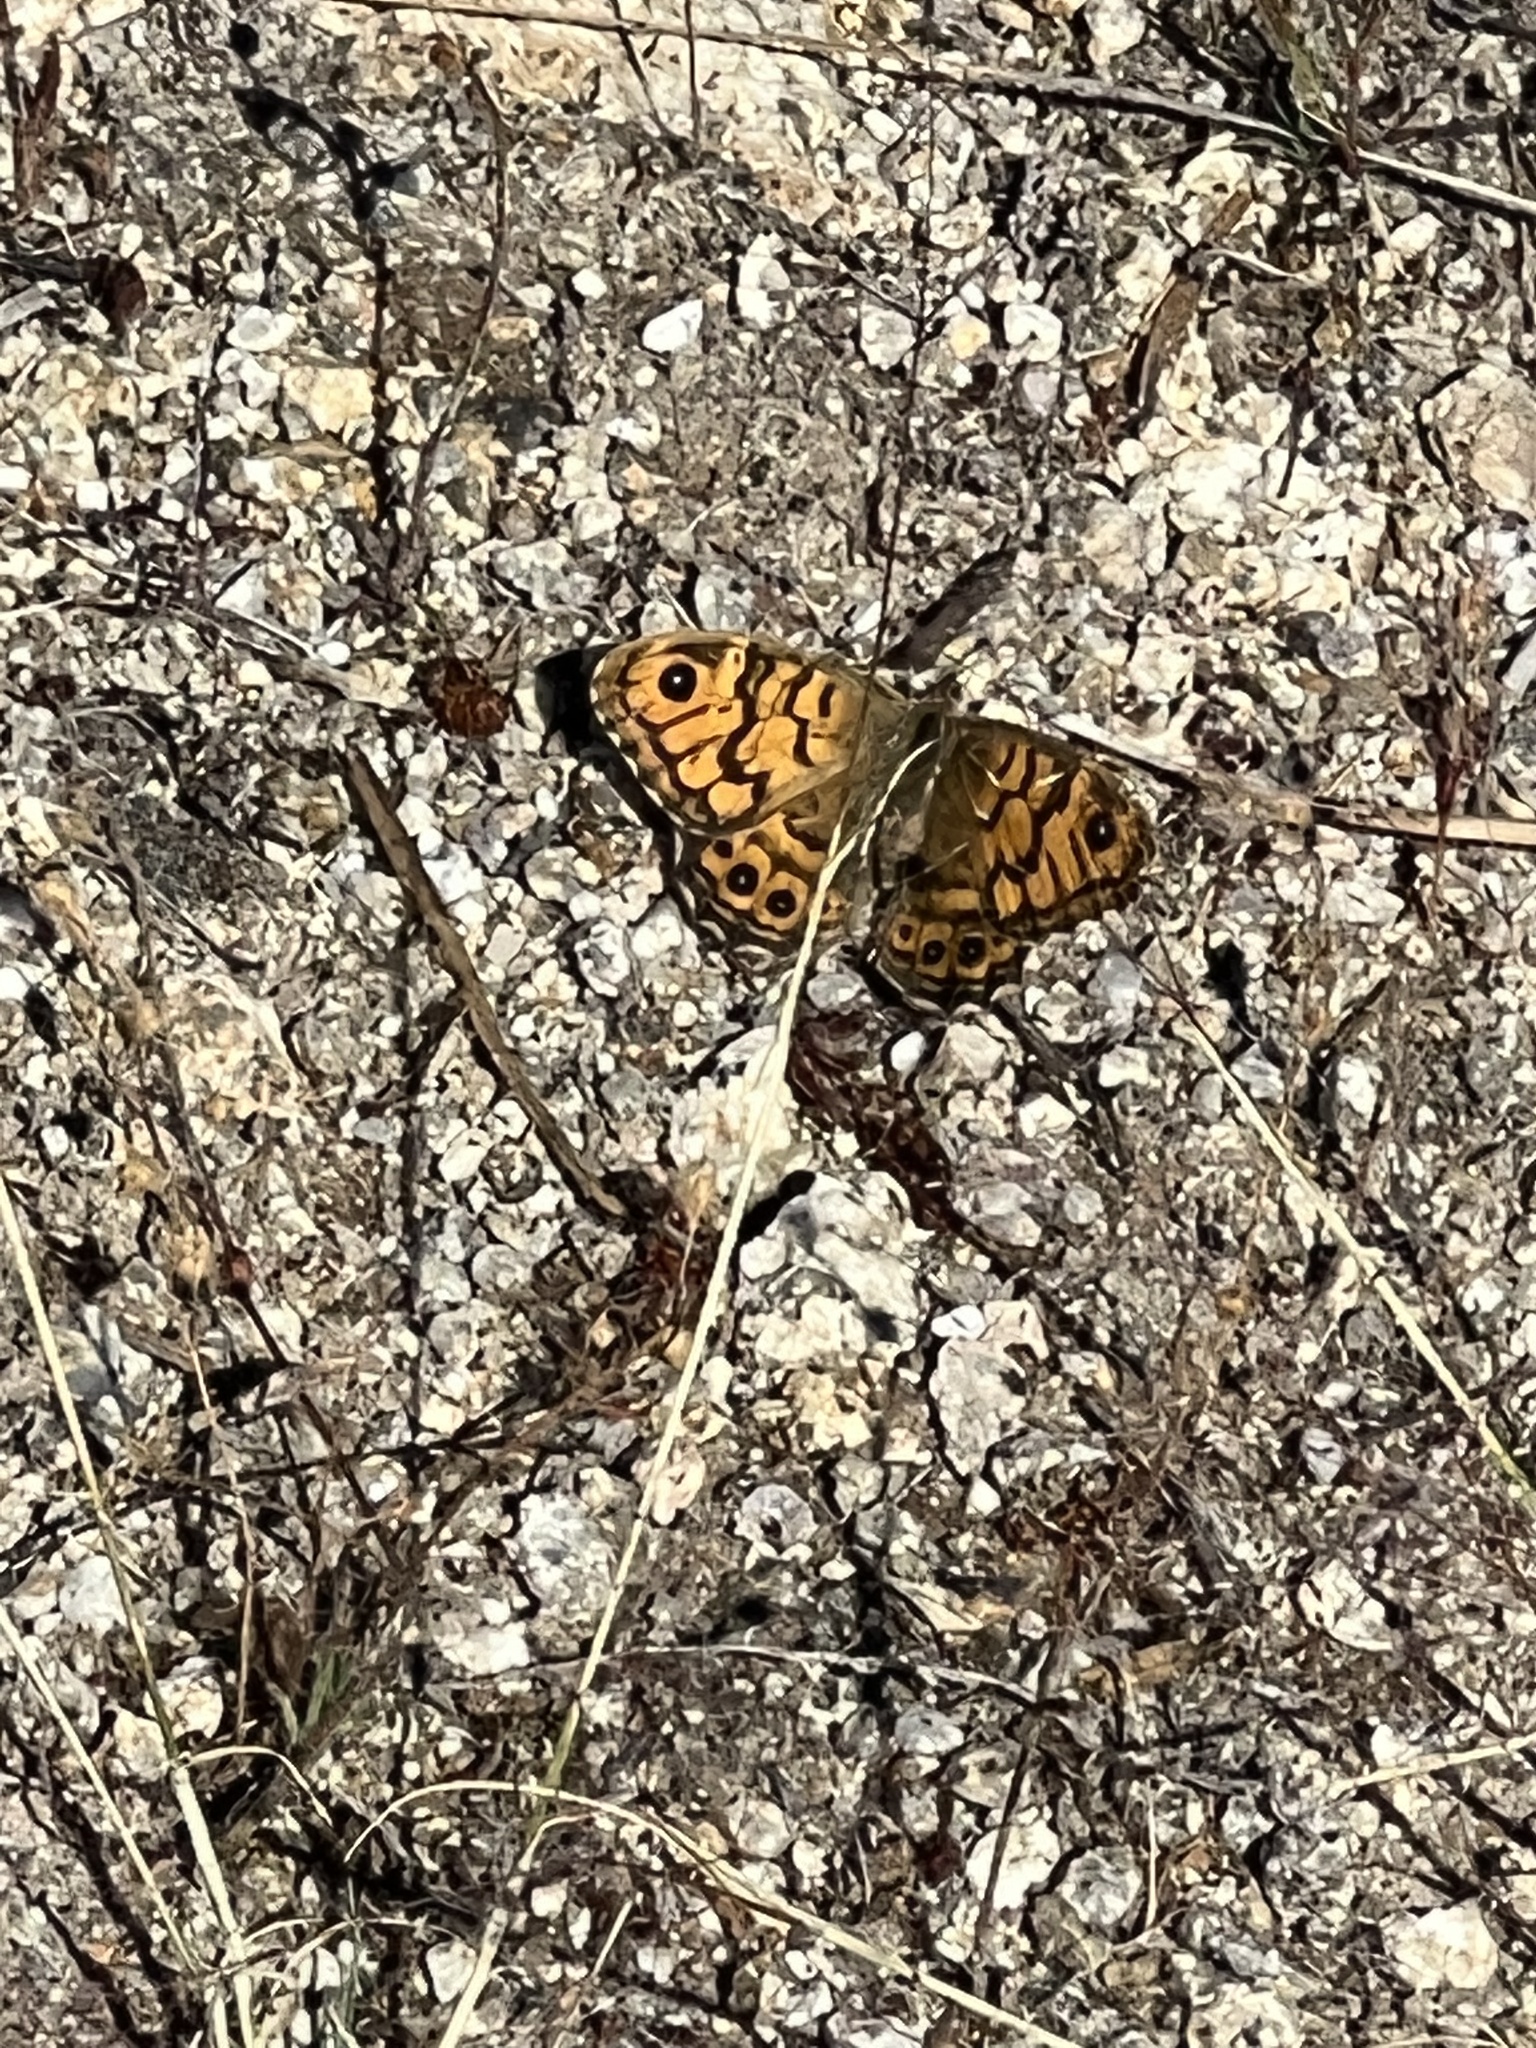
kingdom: Animalia
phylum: Arthropoda
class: Insecta
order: Lepidoptera
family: Nymphalidae
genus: Pararge
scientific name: Pararge Lasiommata megera
